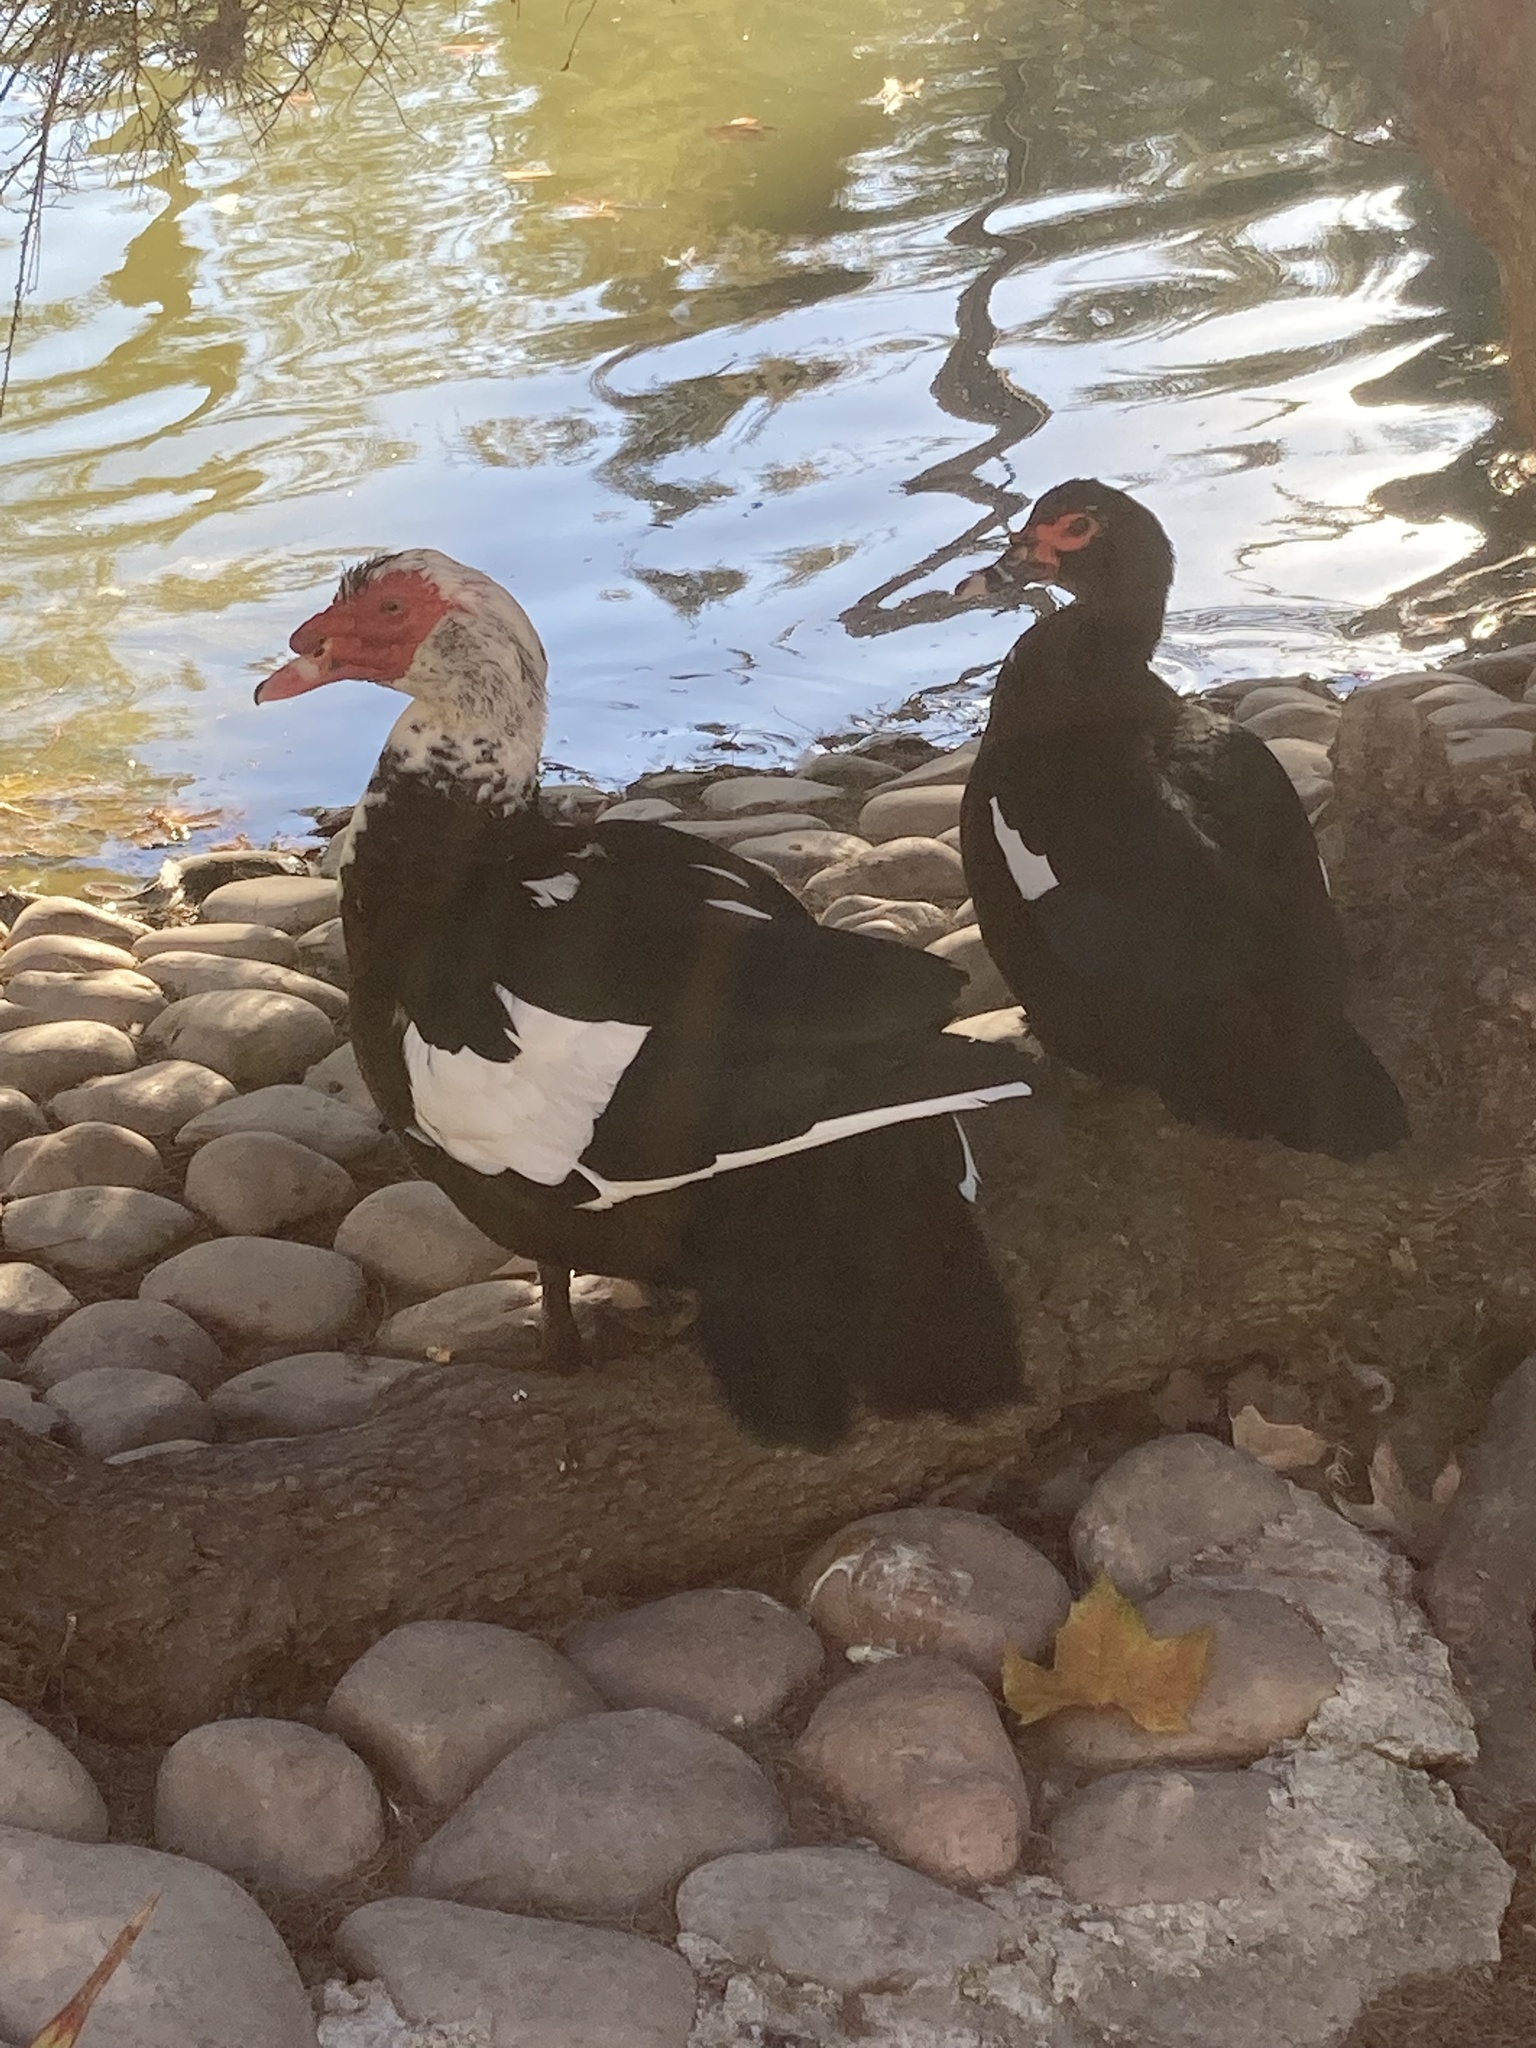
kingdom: Animalia
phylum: Chordata
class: Aves
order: Anseriformes
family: Anatidae
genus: Cairina
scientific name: Cairina moschata
